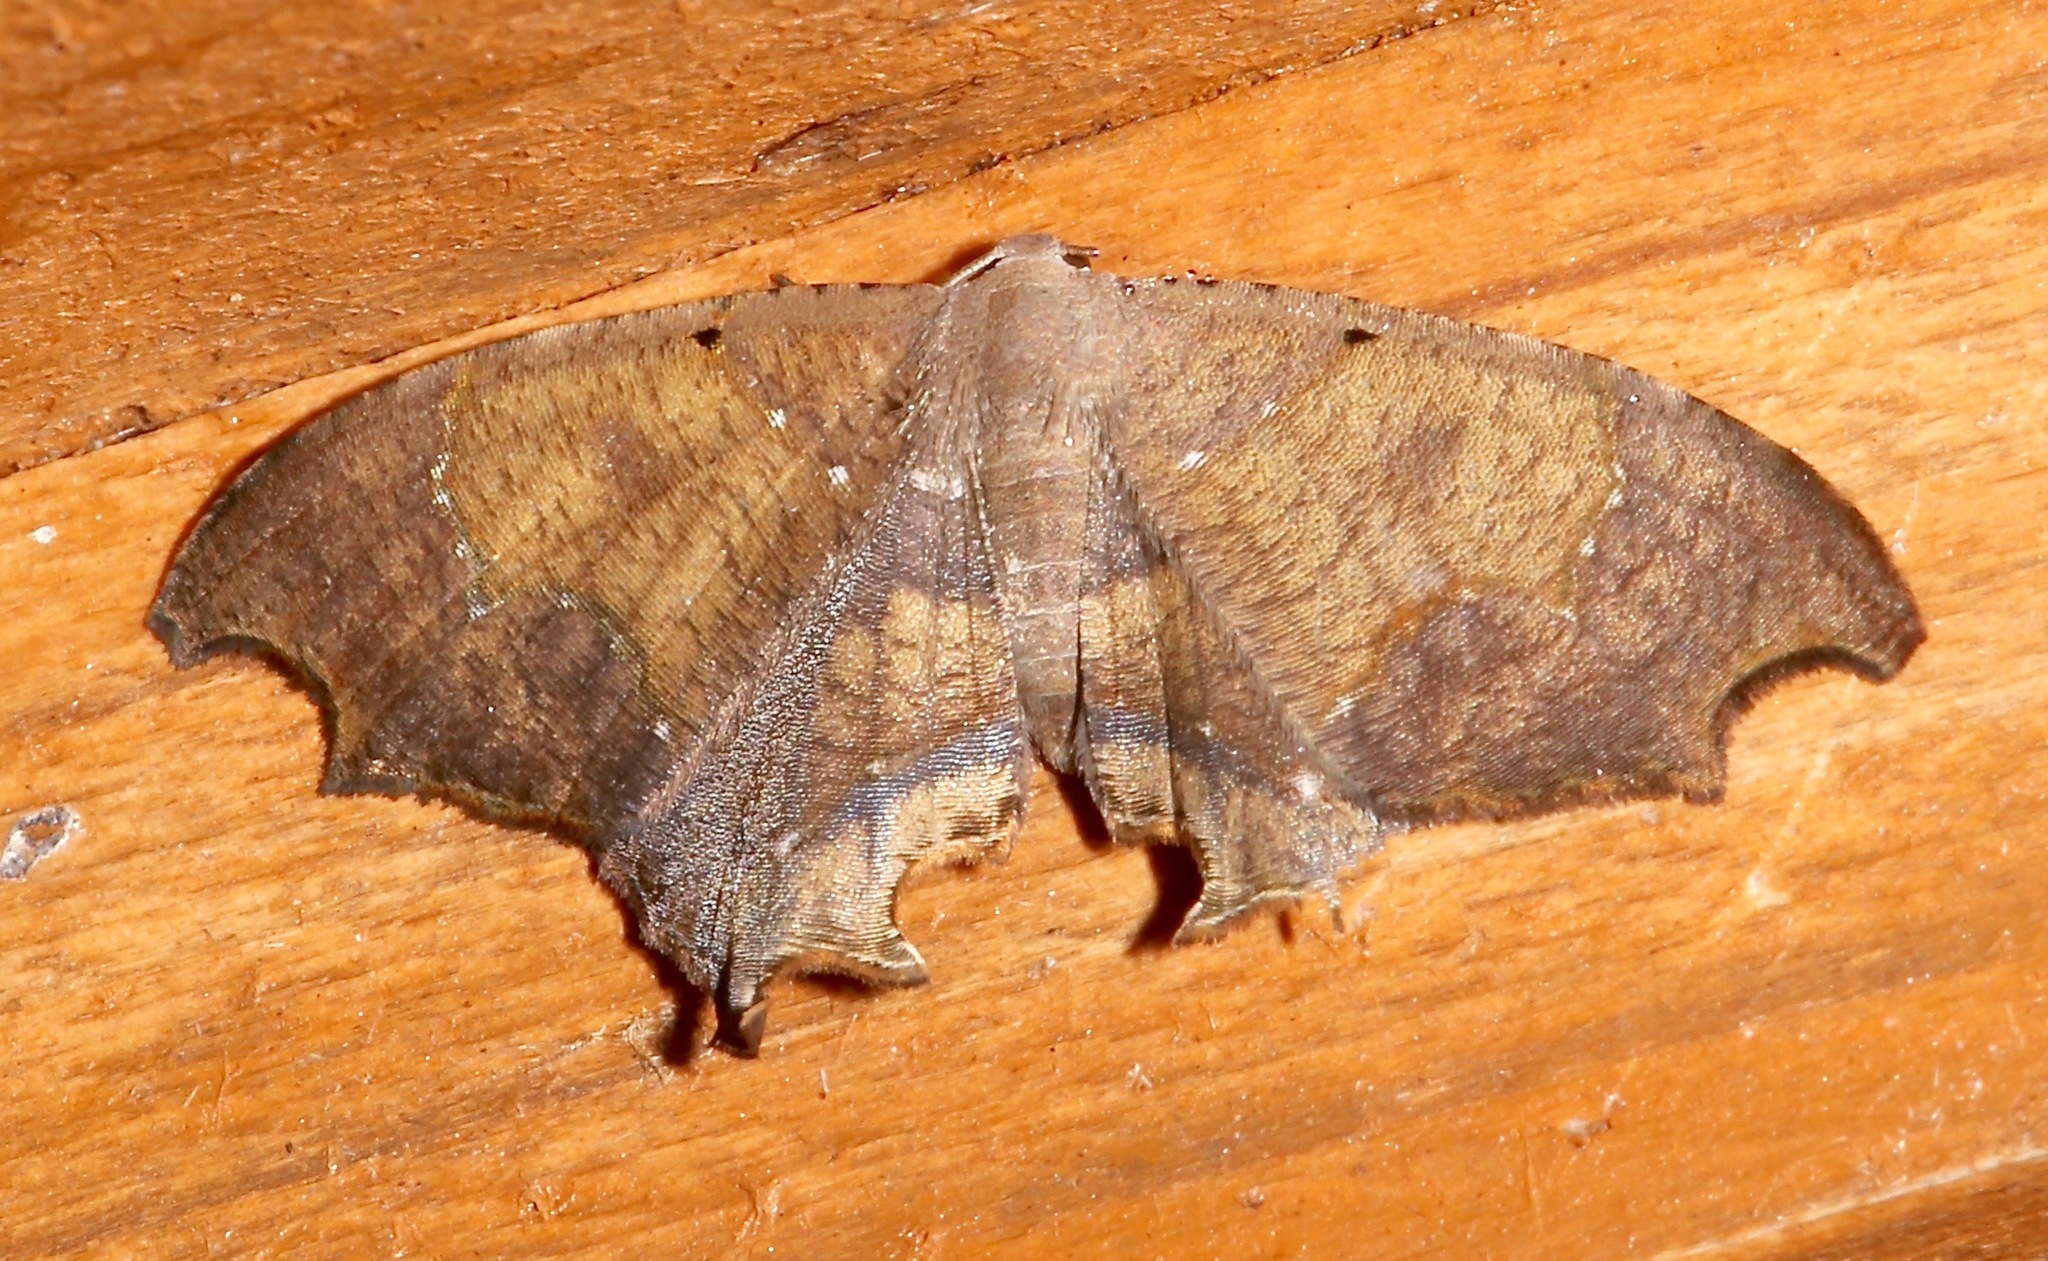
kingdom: Animalia
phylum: Arthropoda
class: Insecta
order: Lepidoptera
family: Uraniidae
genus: Trotorhombia
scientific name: Trotorhombia metachromata
